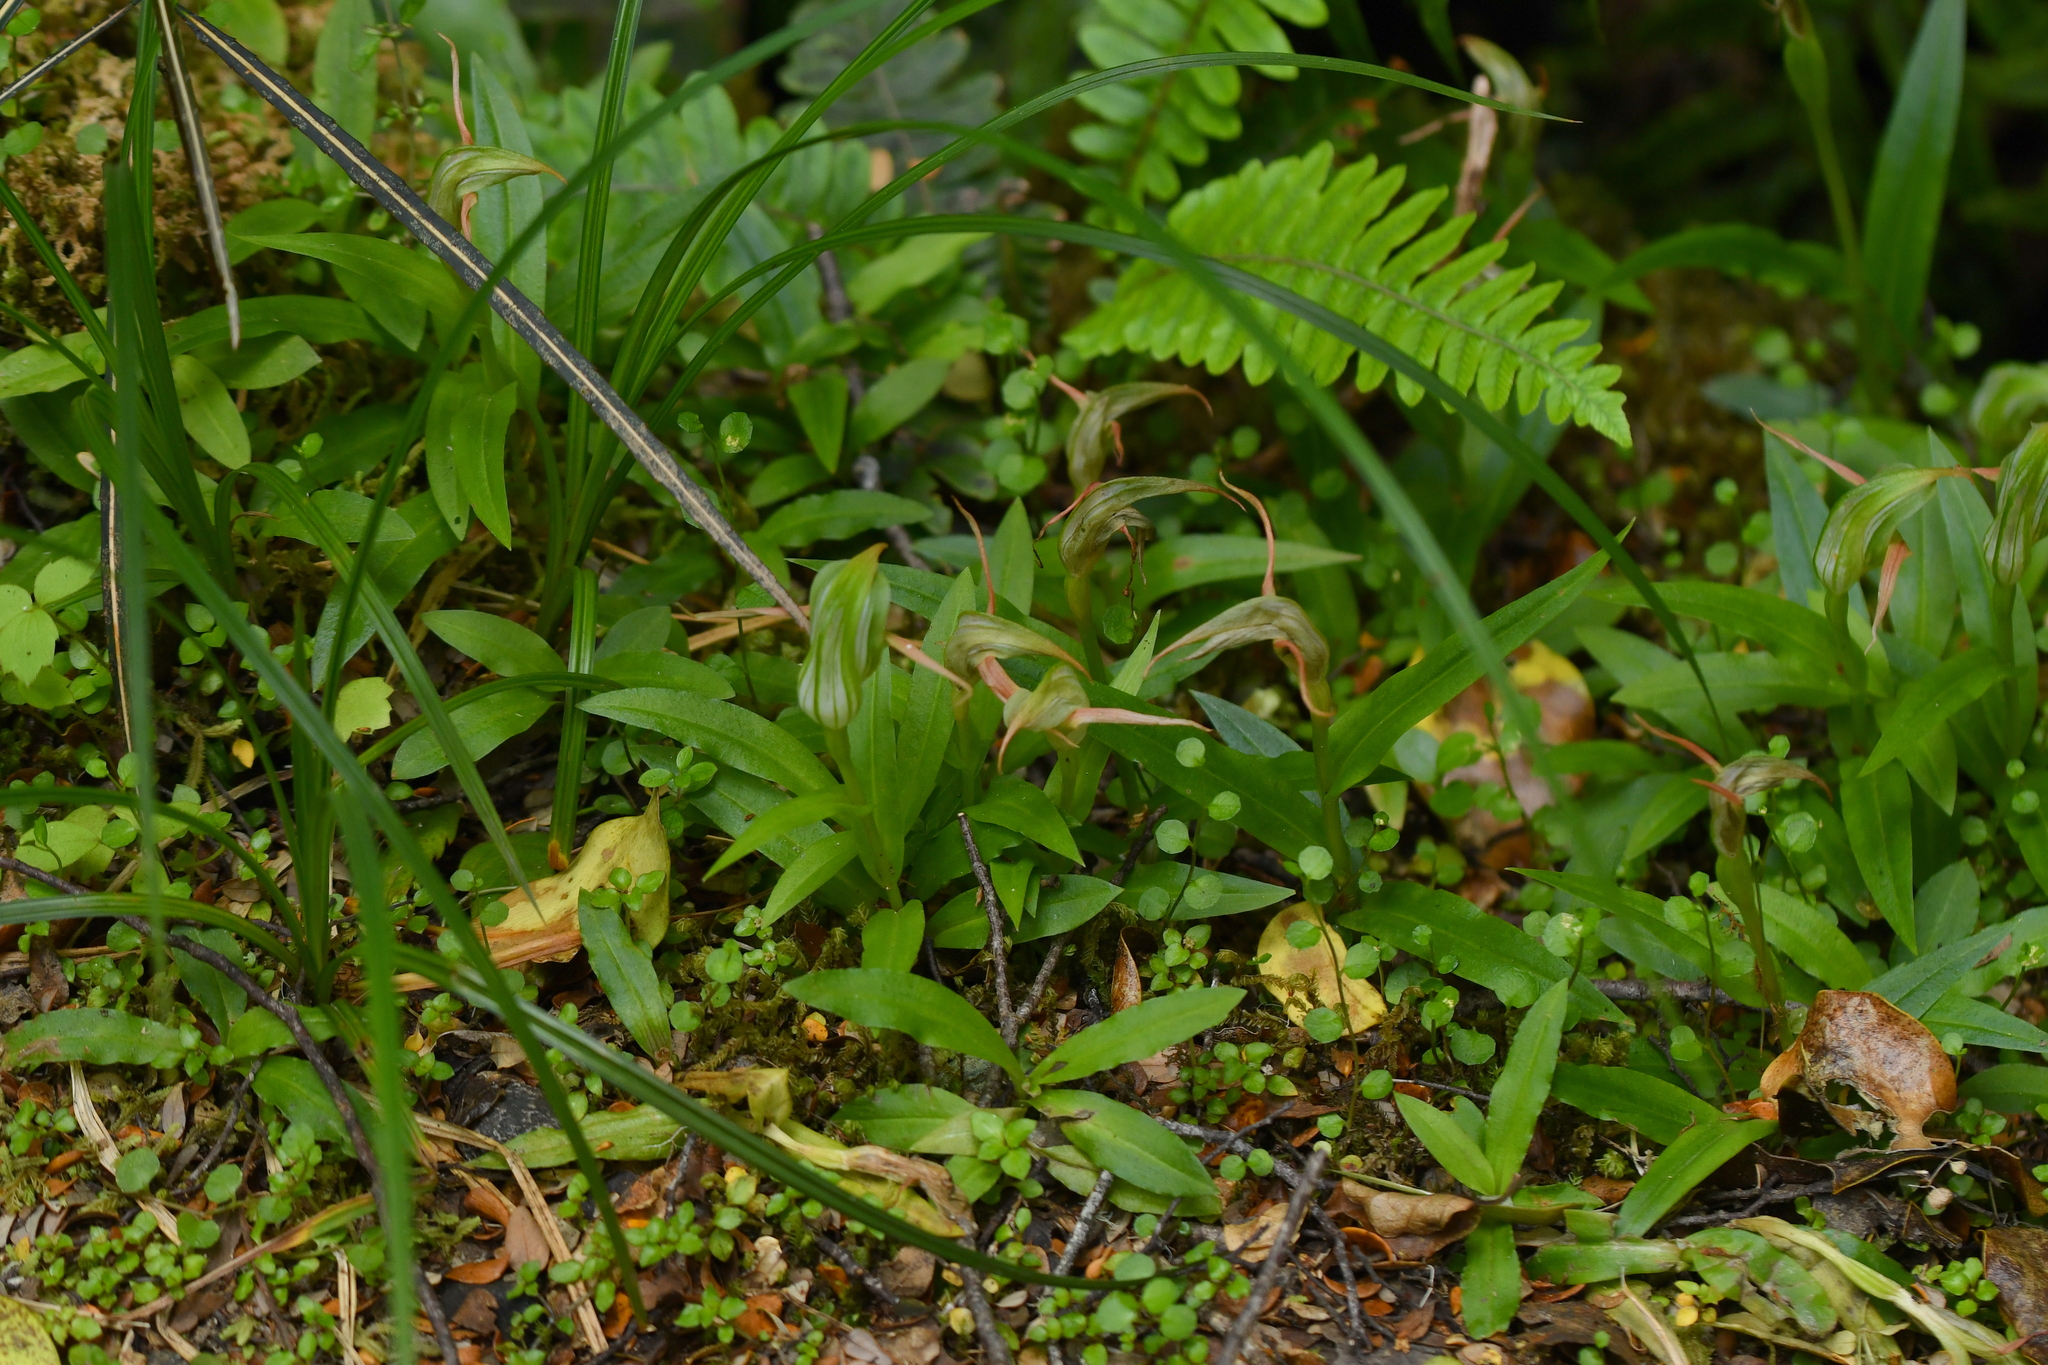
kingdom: Plantae
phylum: Tracheophyta
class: Liliopsida
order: Asparagales
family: Orchidaceae
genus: Pterostylis
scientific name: Pterostylis australis
